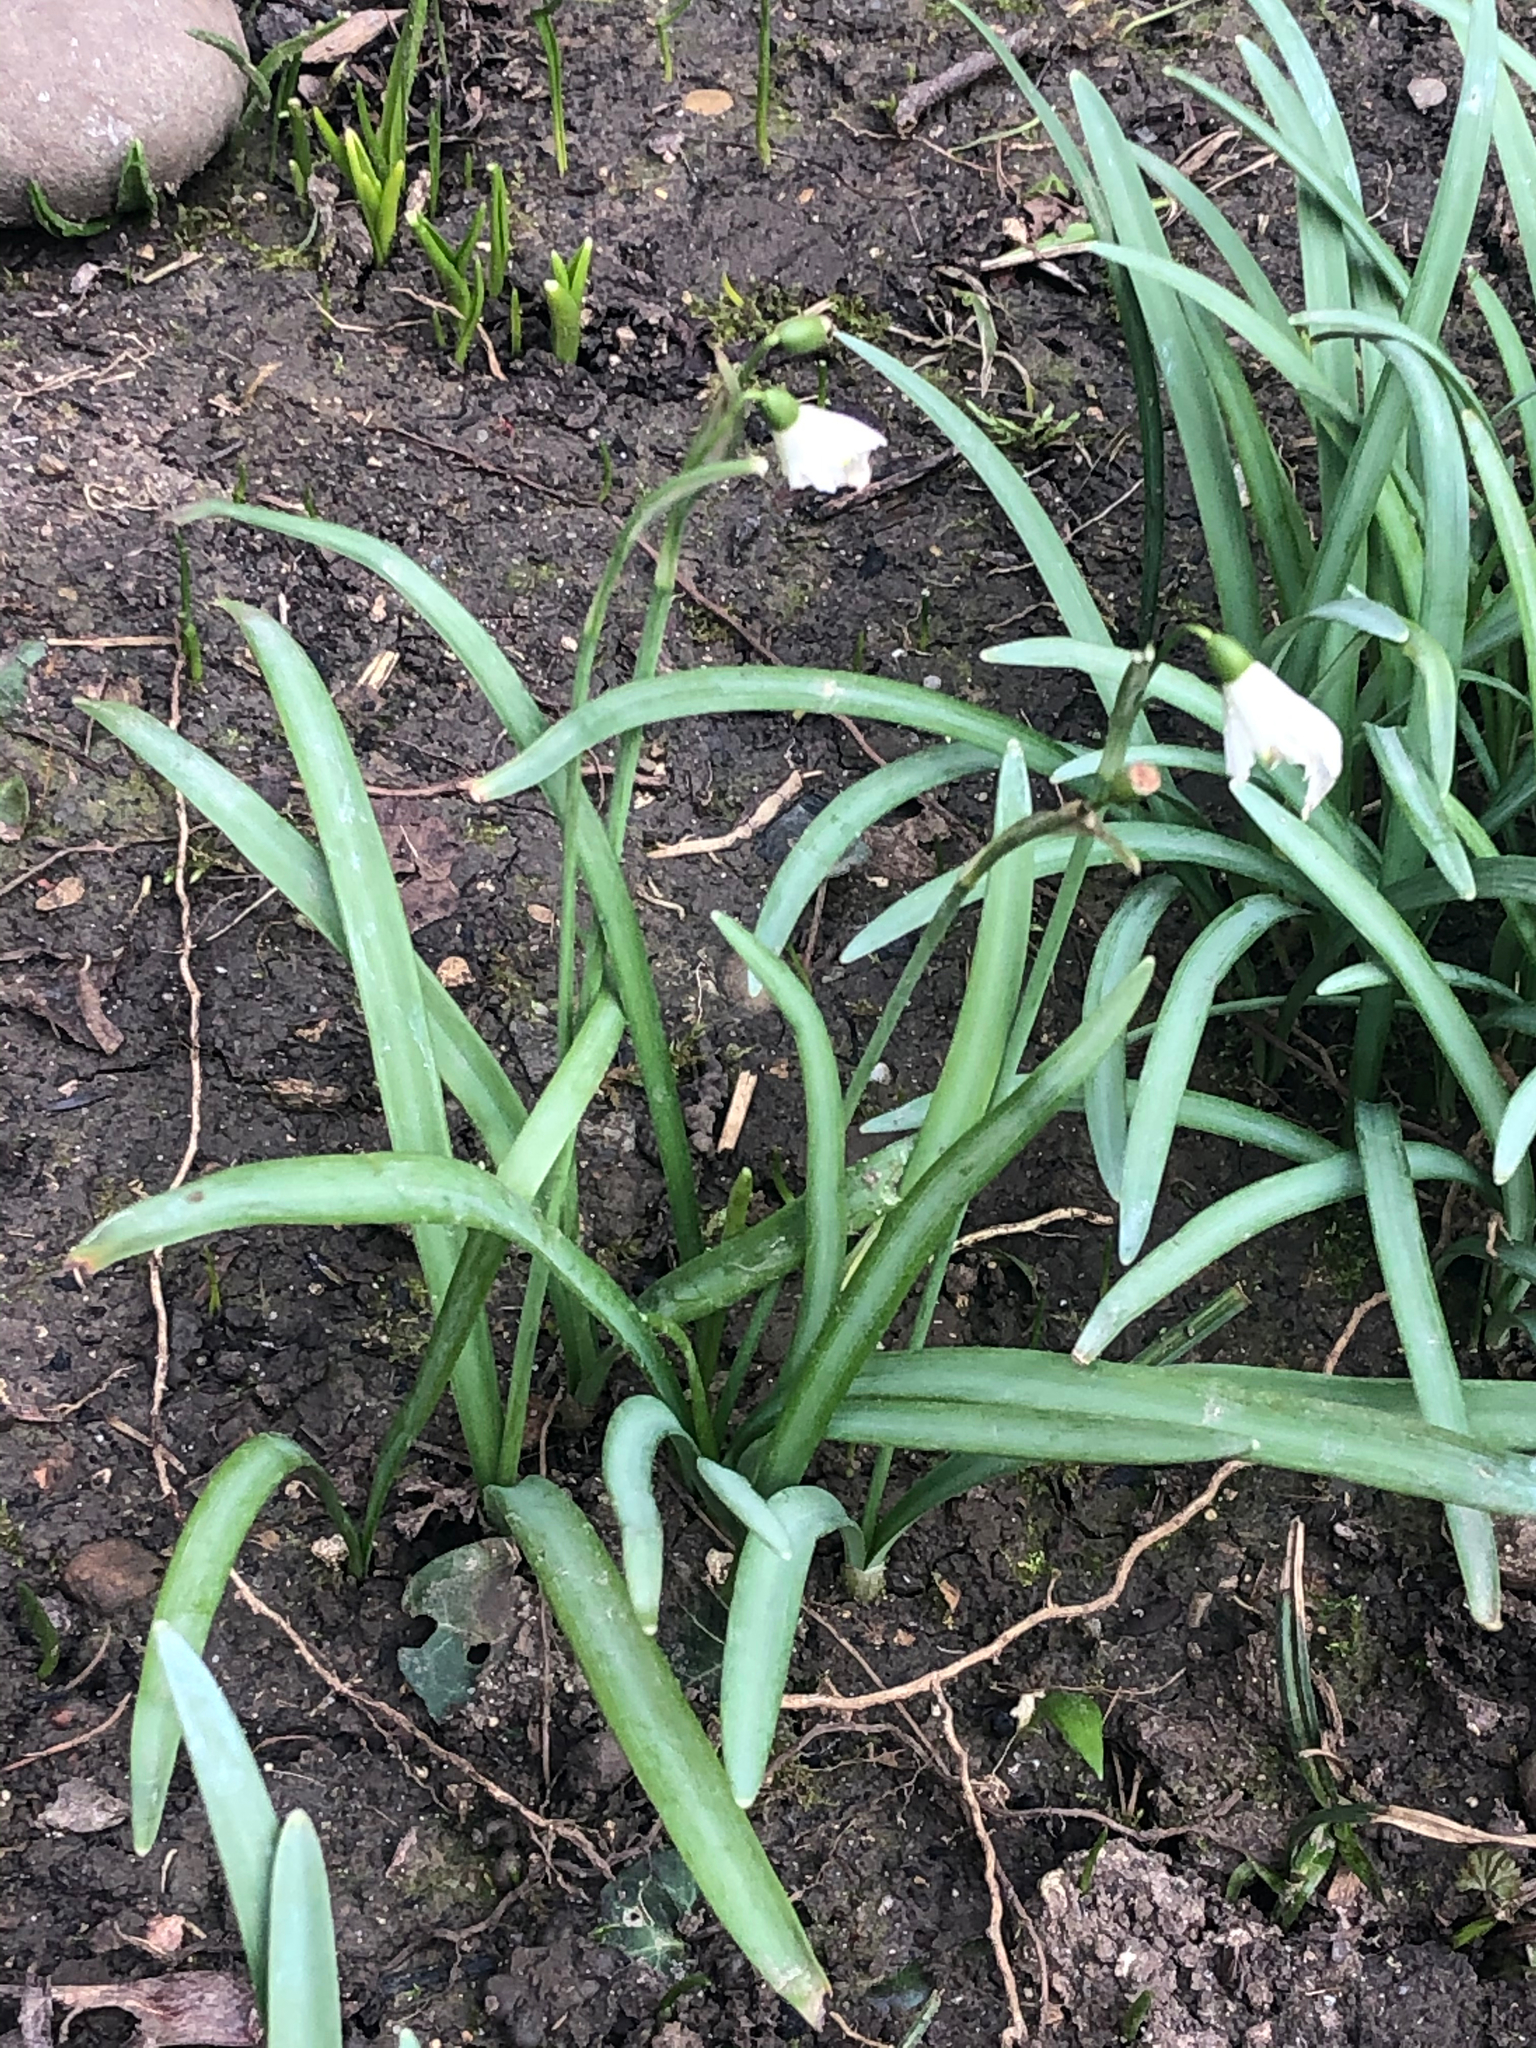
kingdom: Plantae
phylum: Tracheophyta
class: Liliopsida
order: Asparagales
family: Amaryllidaceae
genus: Galanthus
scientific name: Galanthus nivalis
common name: Snowdrop
